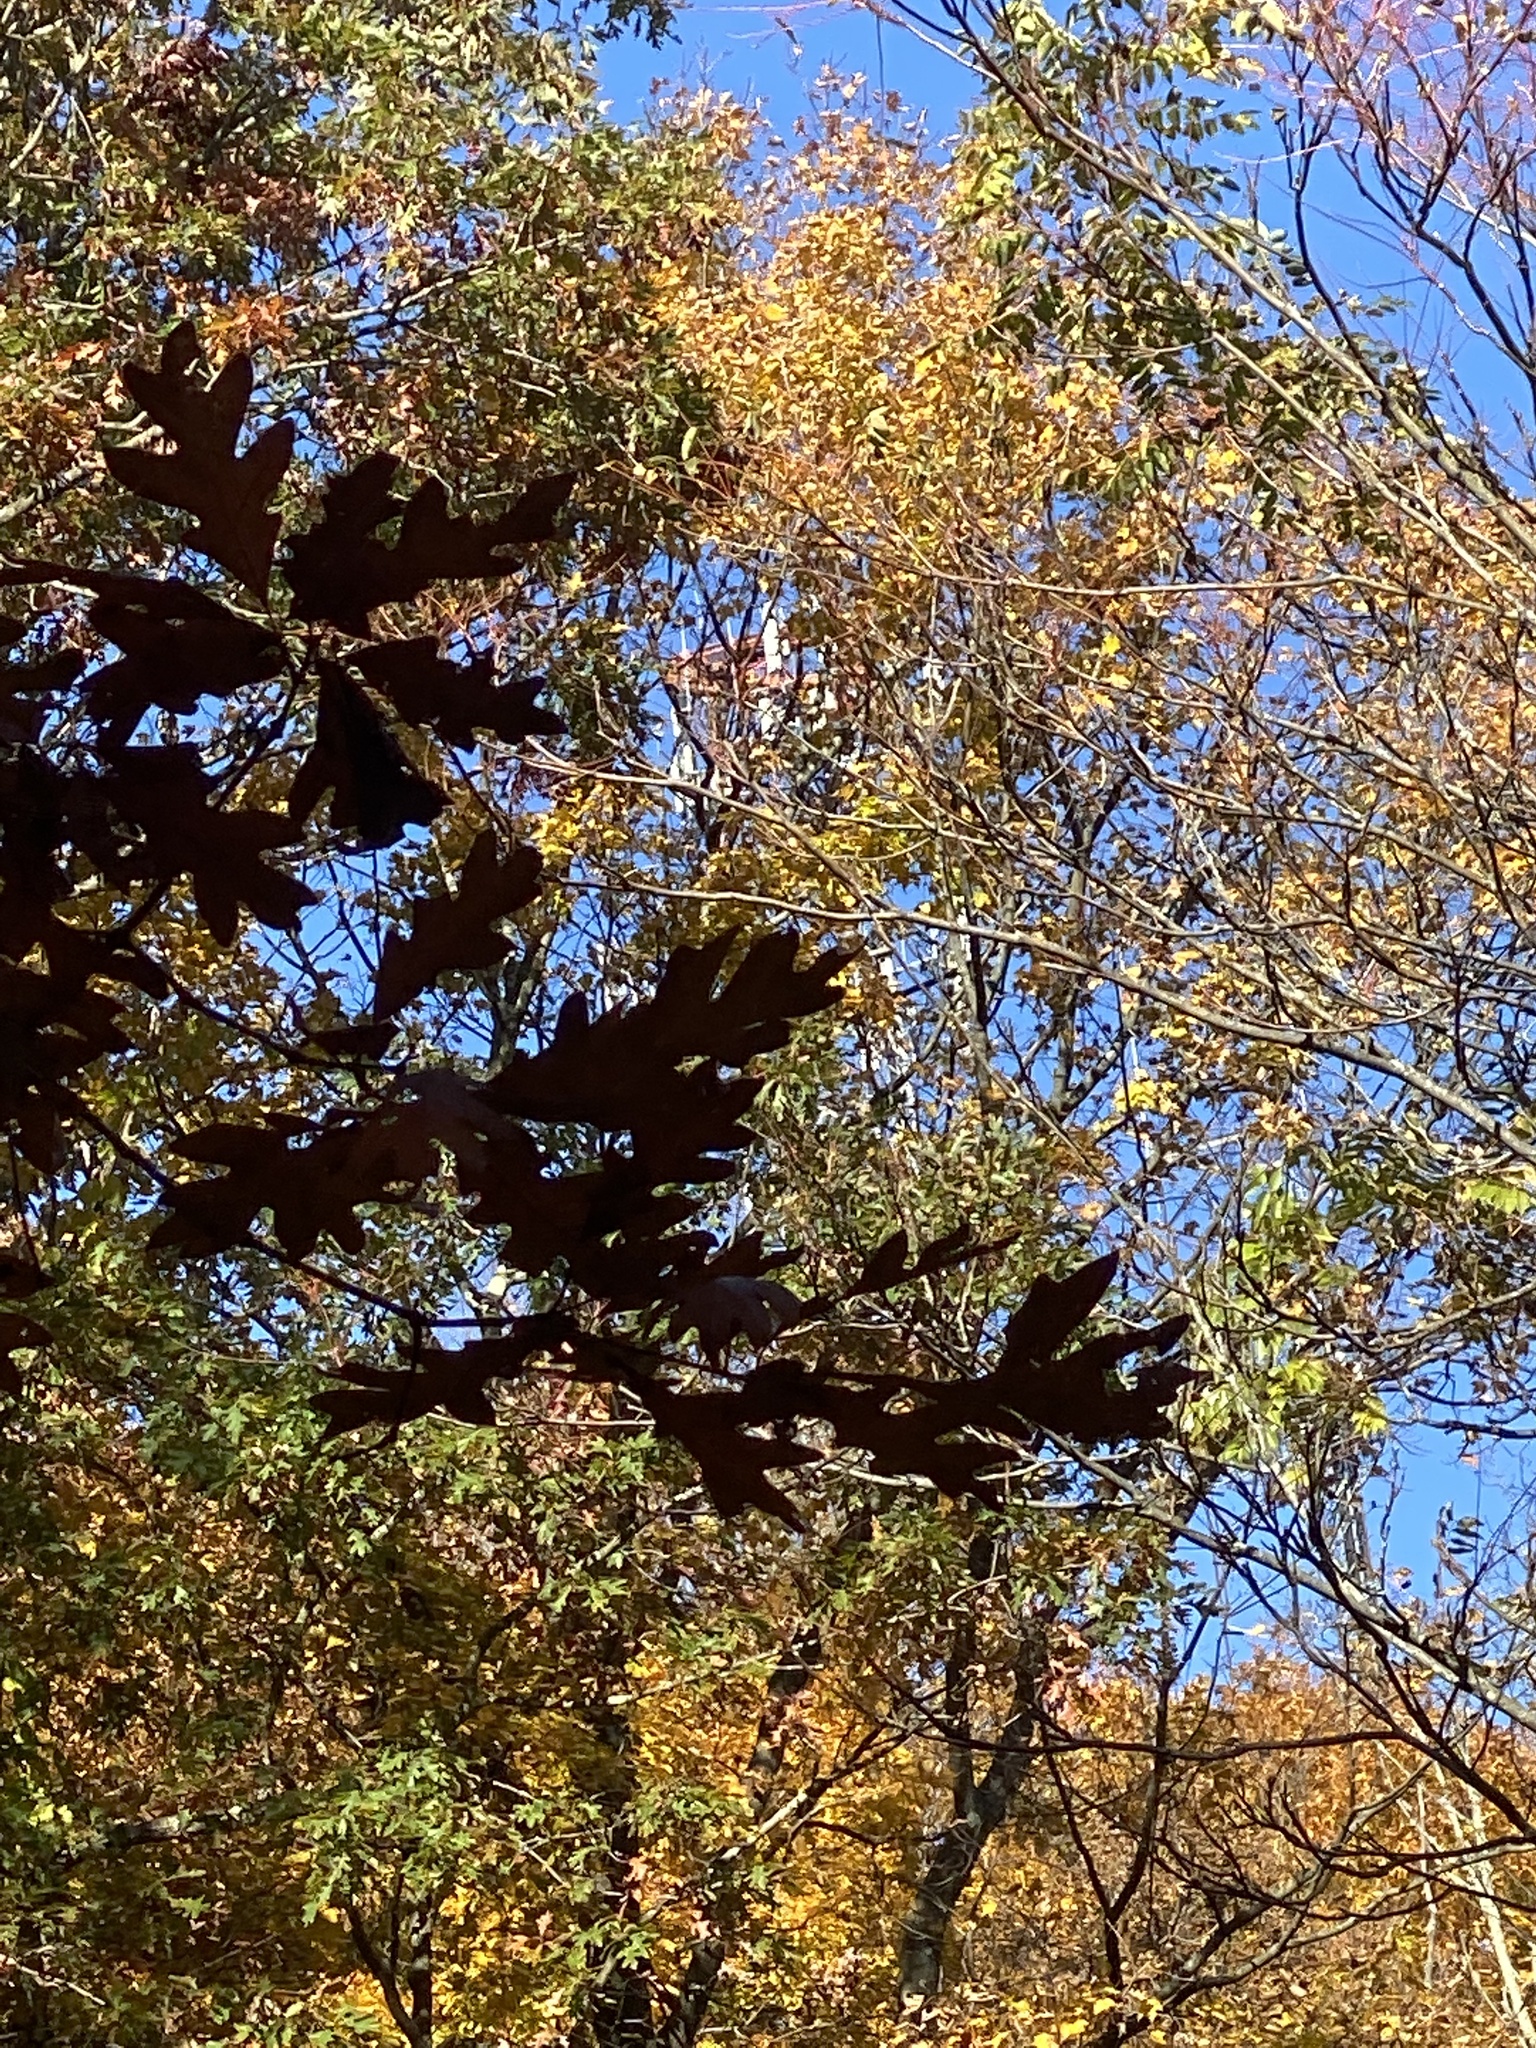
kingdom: Plantae
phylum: Tracheophyta
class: Magnoliopsida
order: Fagales
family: Fagaceae
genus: Quercus
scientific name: Quercus alba
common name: White oak
